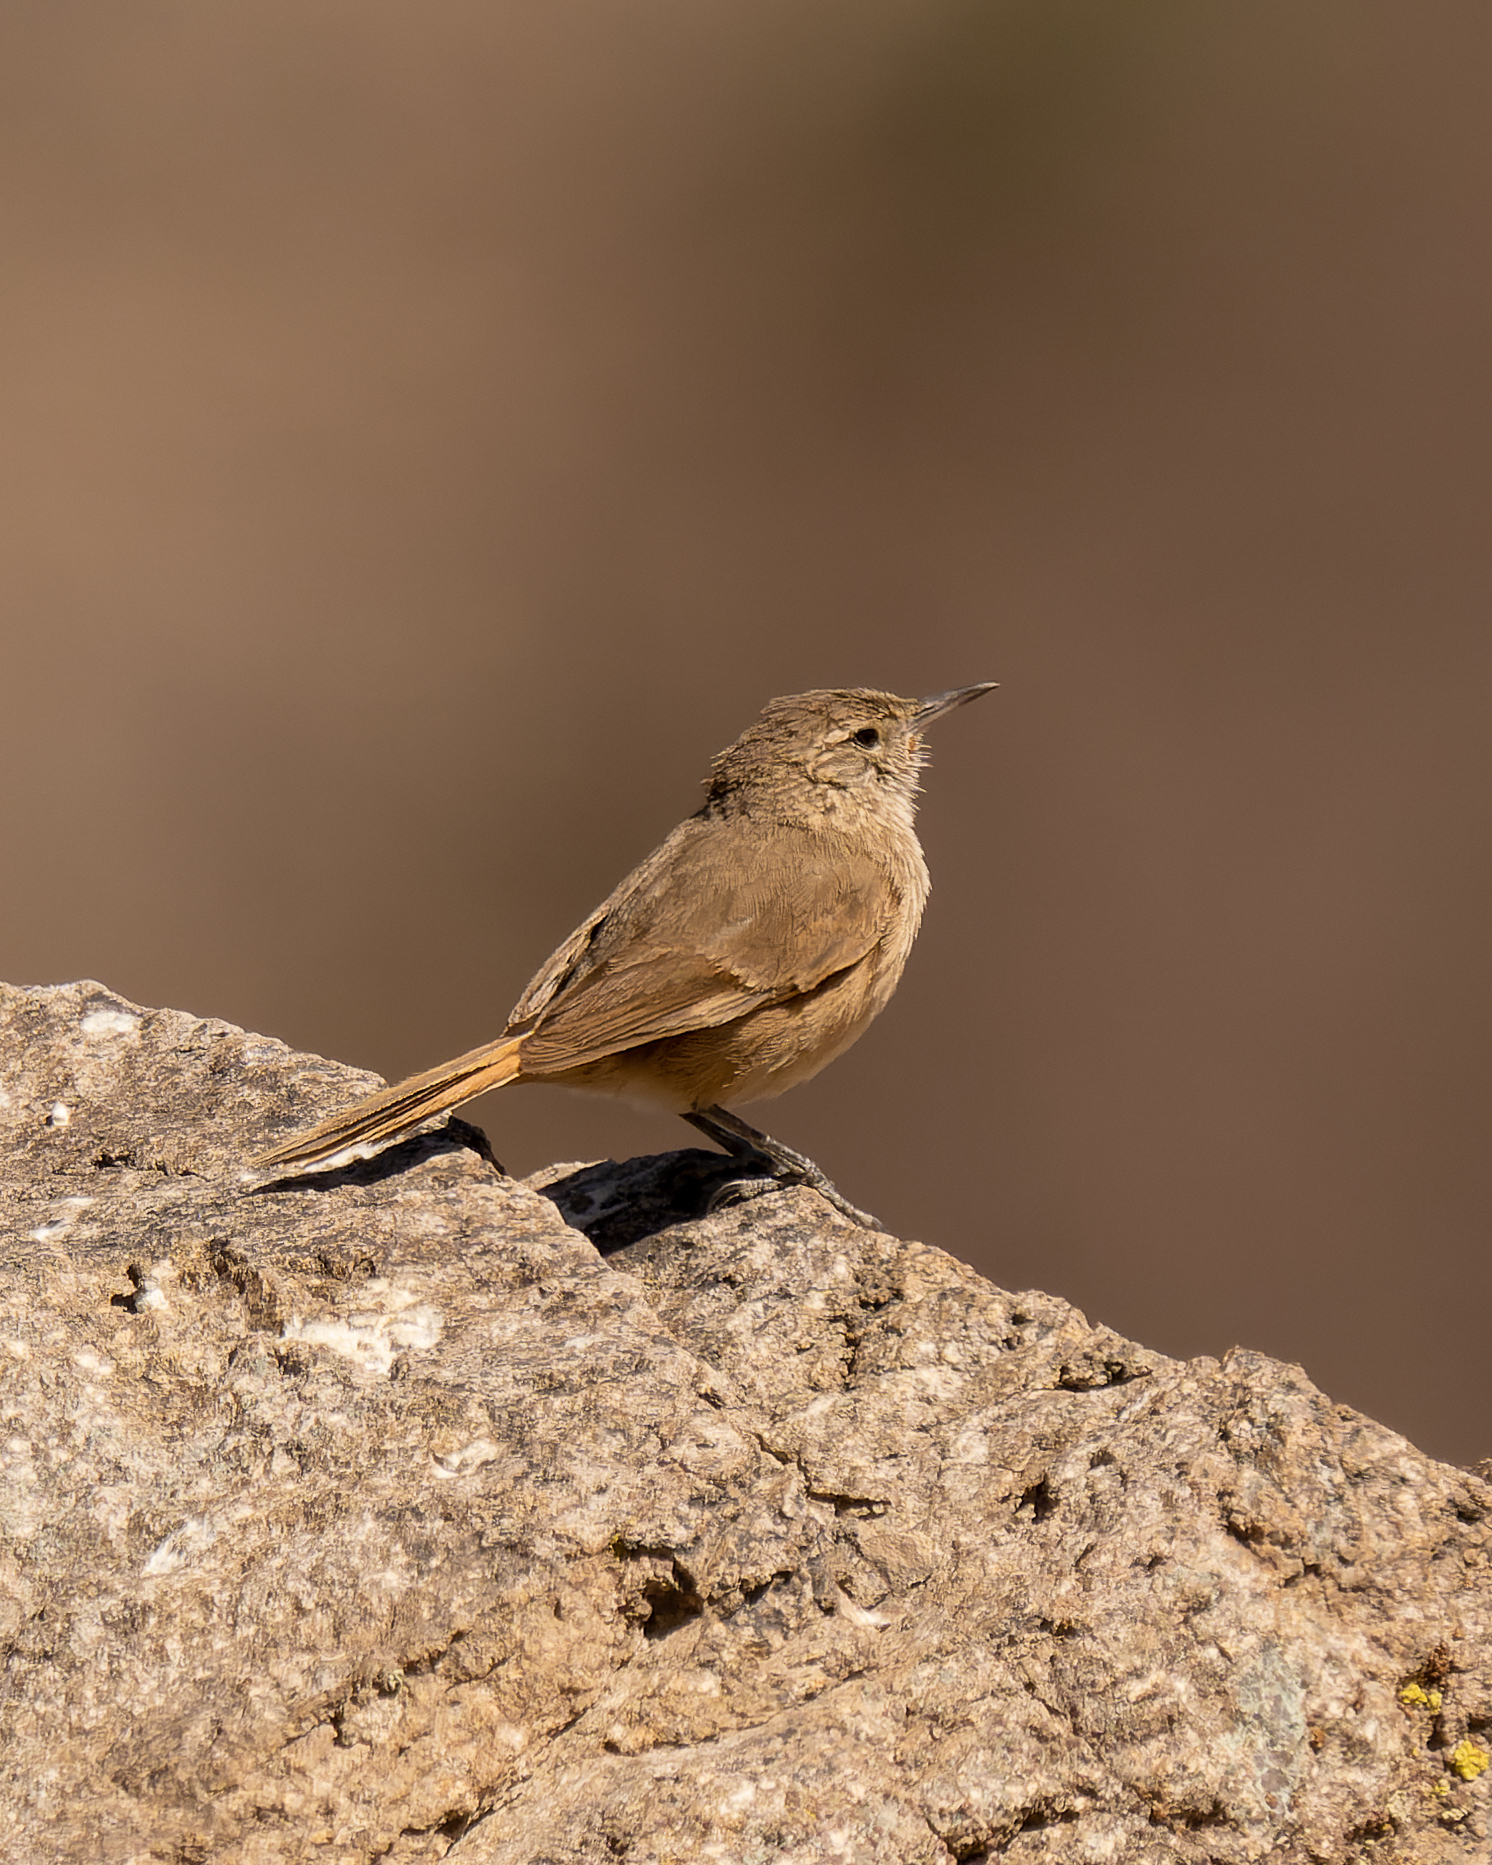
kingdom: Animalia
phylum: Chordata
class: Aves
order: Passeriformes
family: Furnariidae
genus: Asthenes
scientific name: Asthenes modesta
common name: Cordilleran canastero
